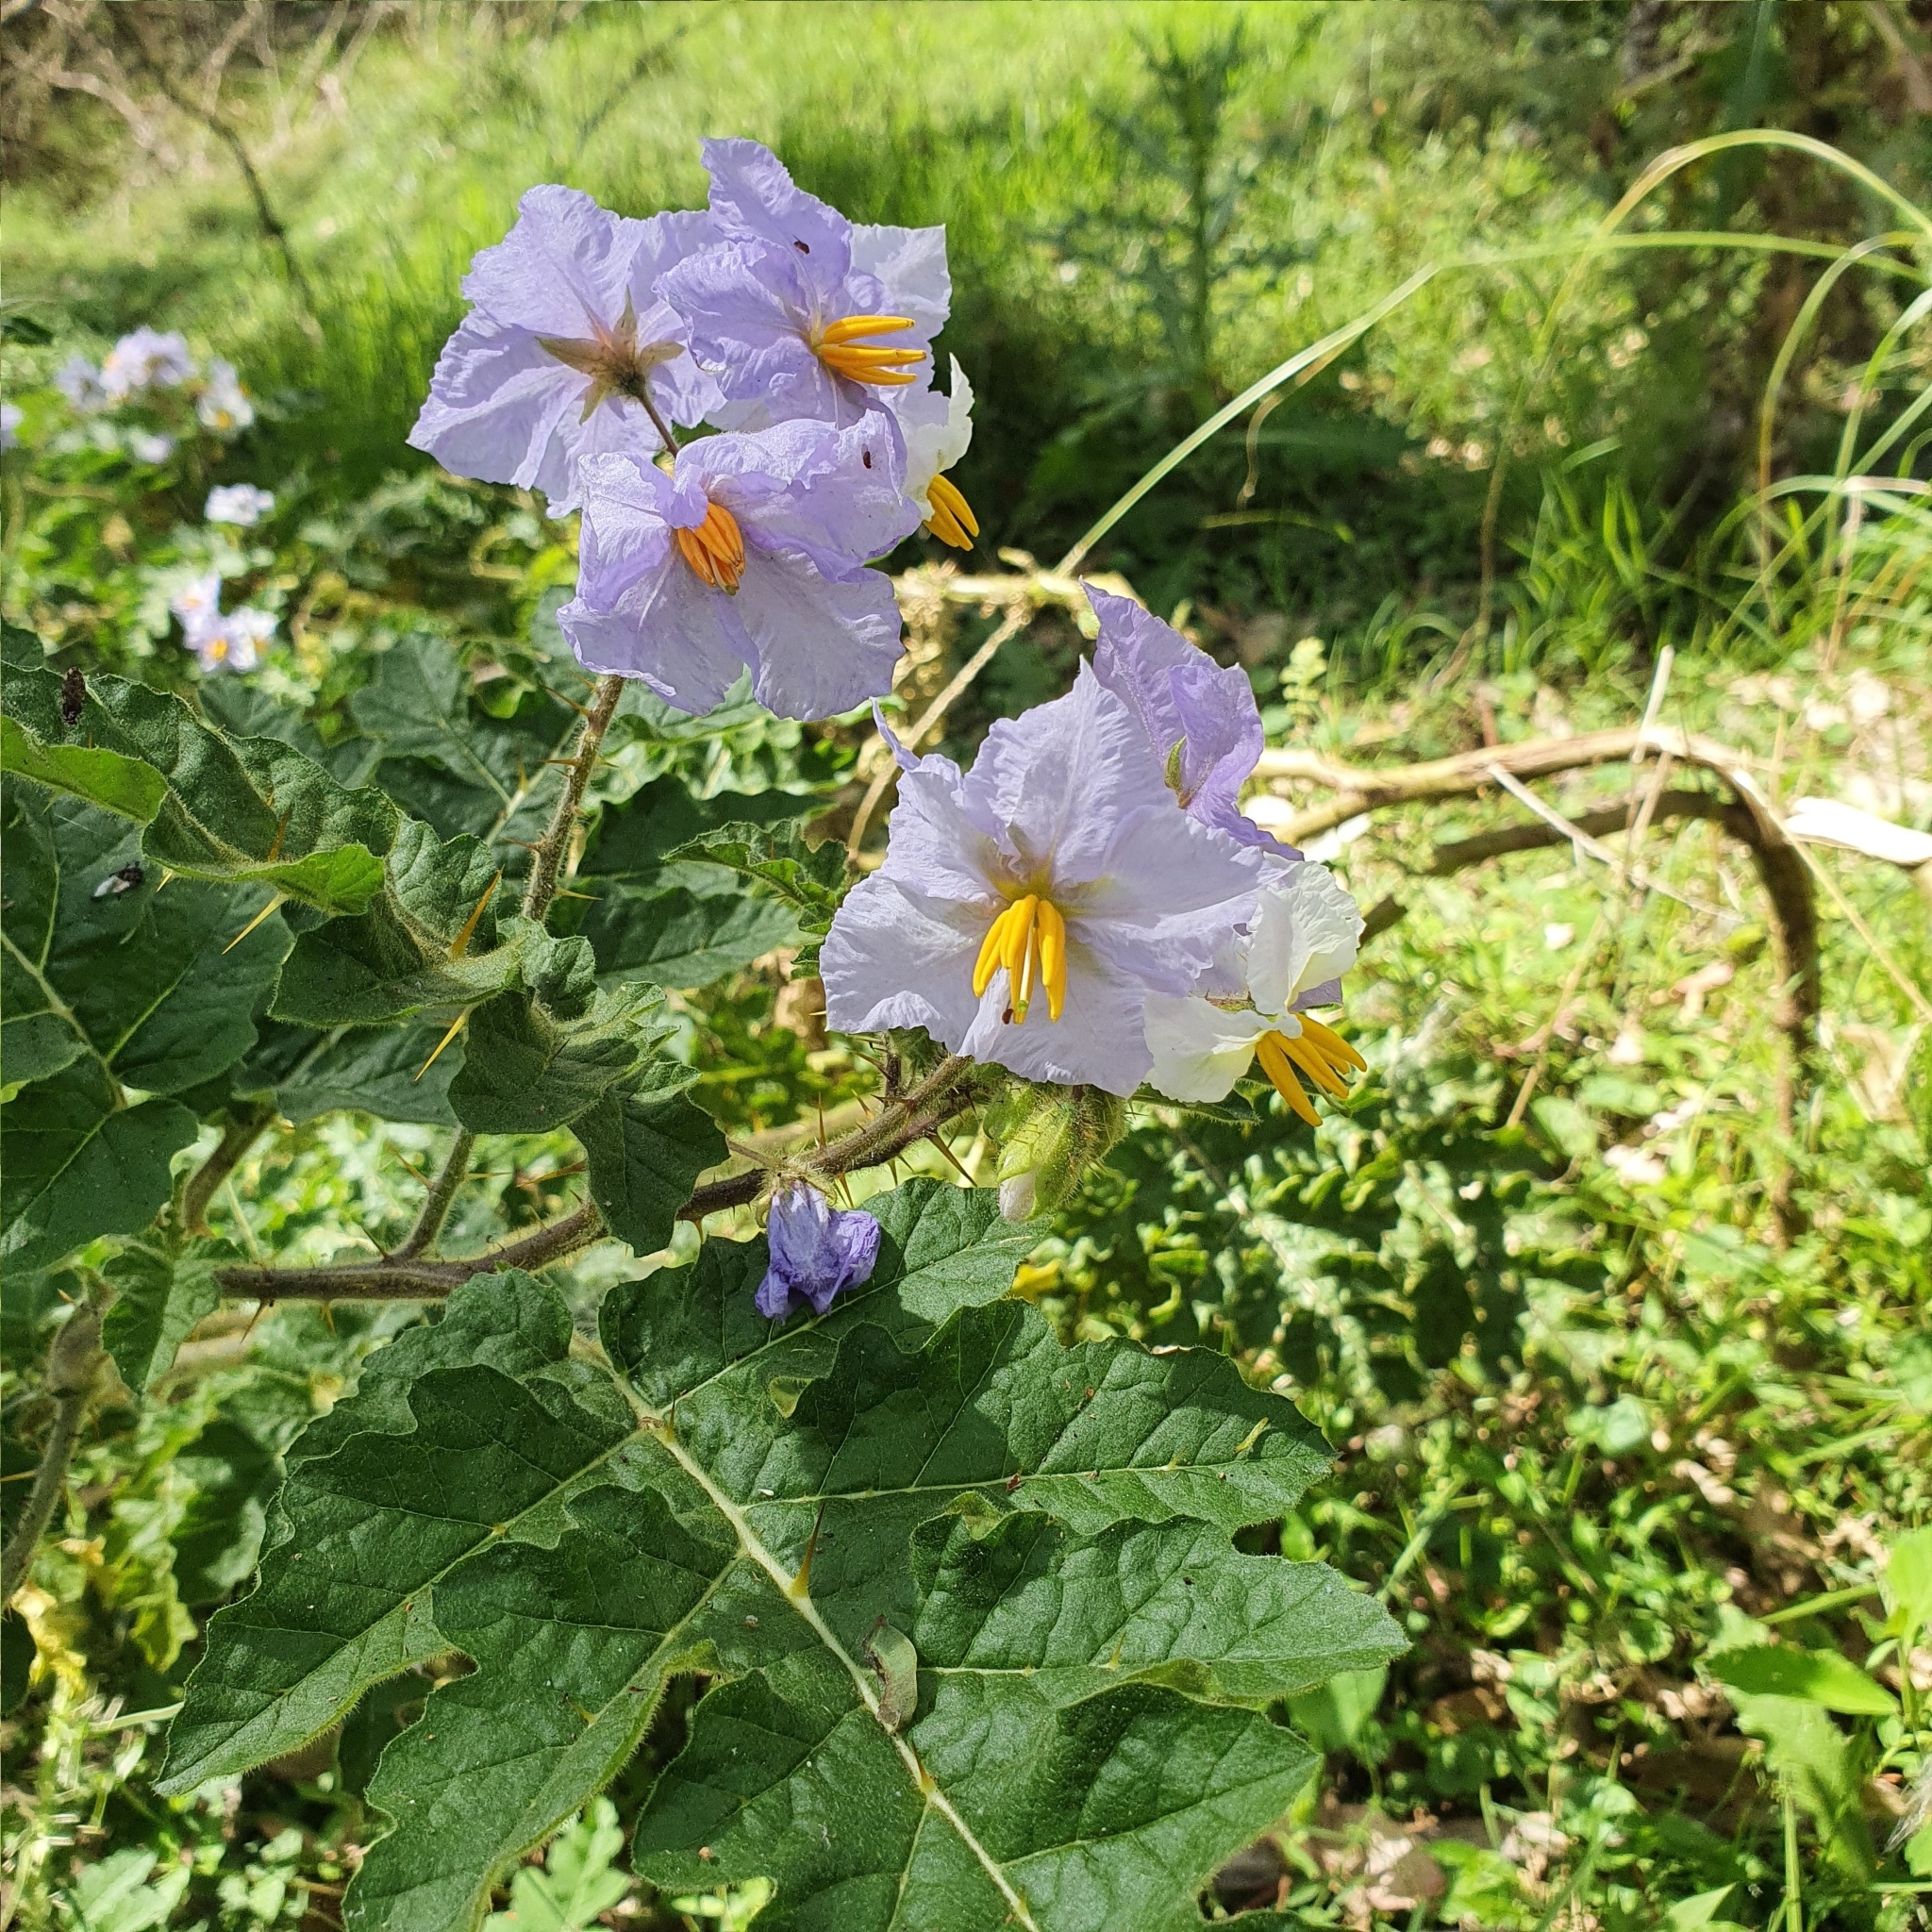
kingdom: Plantae
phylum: Tracheophyta
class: Magnoliopsida
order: Solanales
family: Solanaceae
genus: Solanum
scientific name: Solanum sisymbriifolium
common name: Red buffalo-bur
